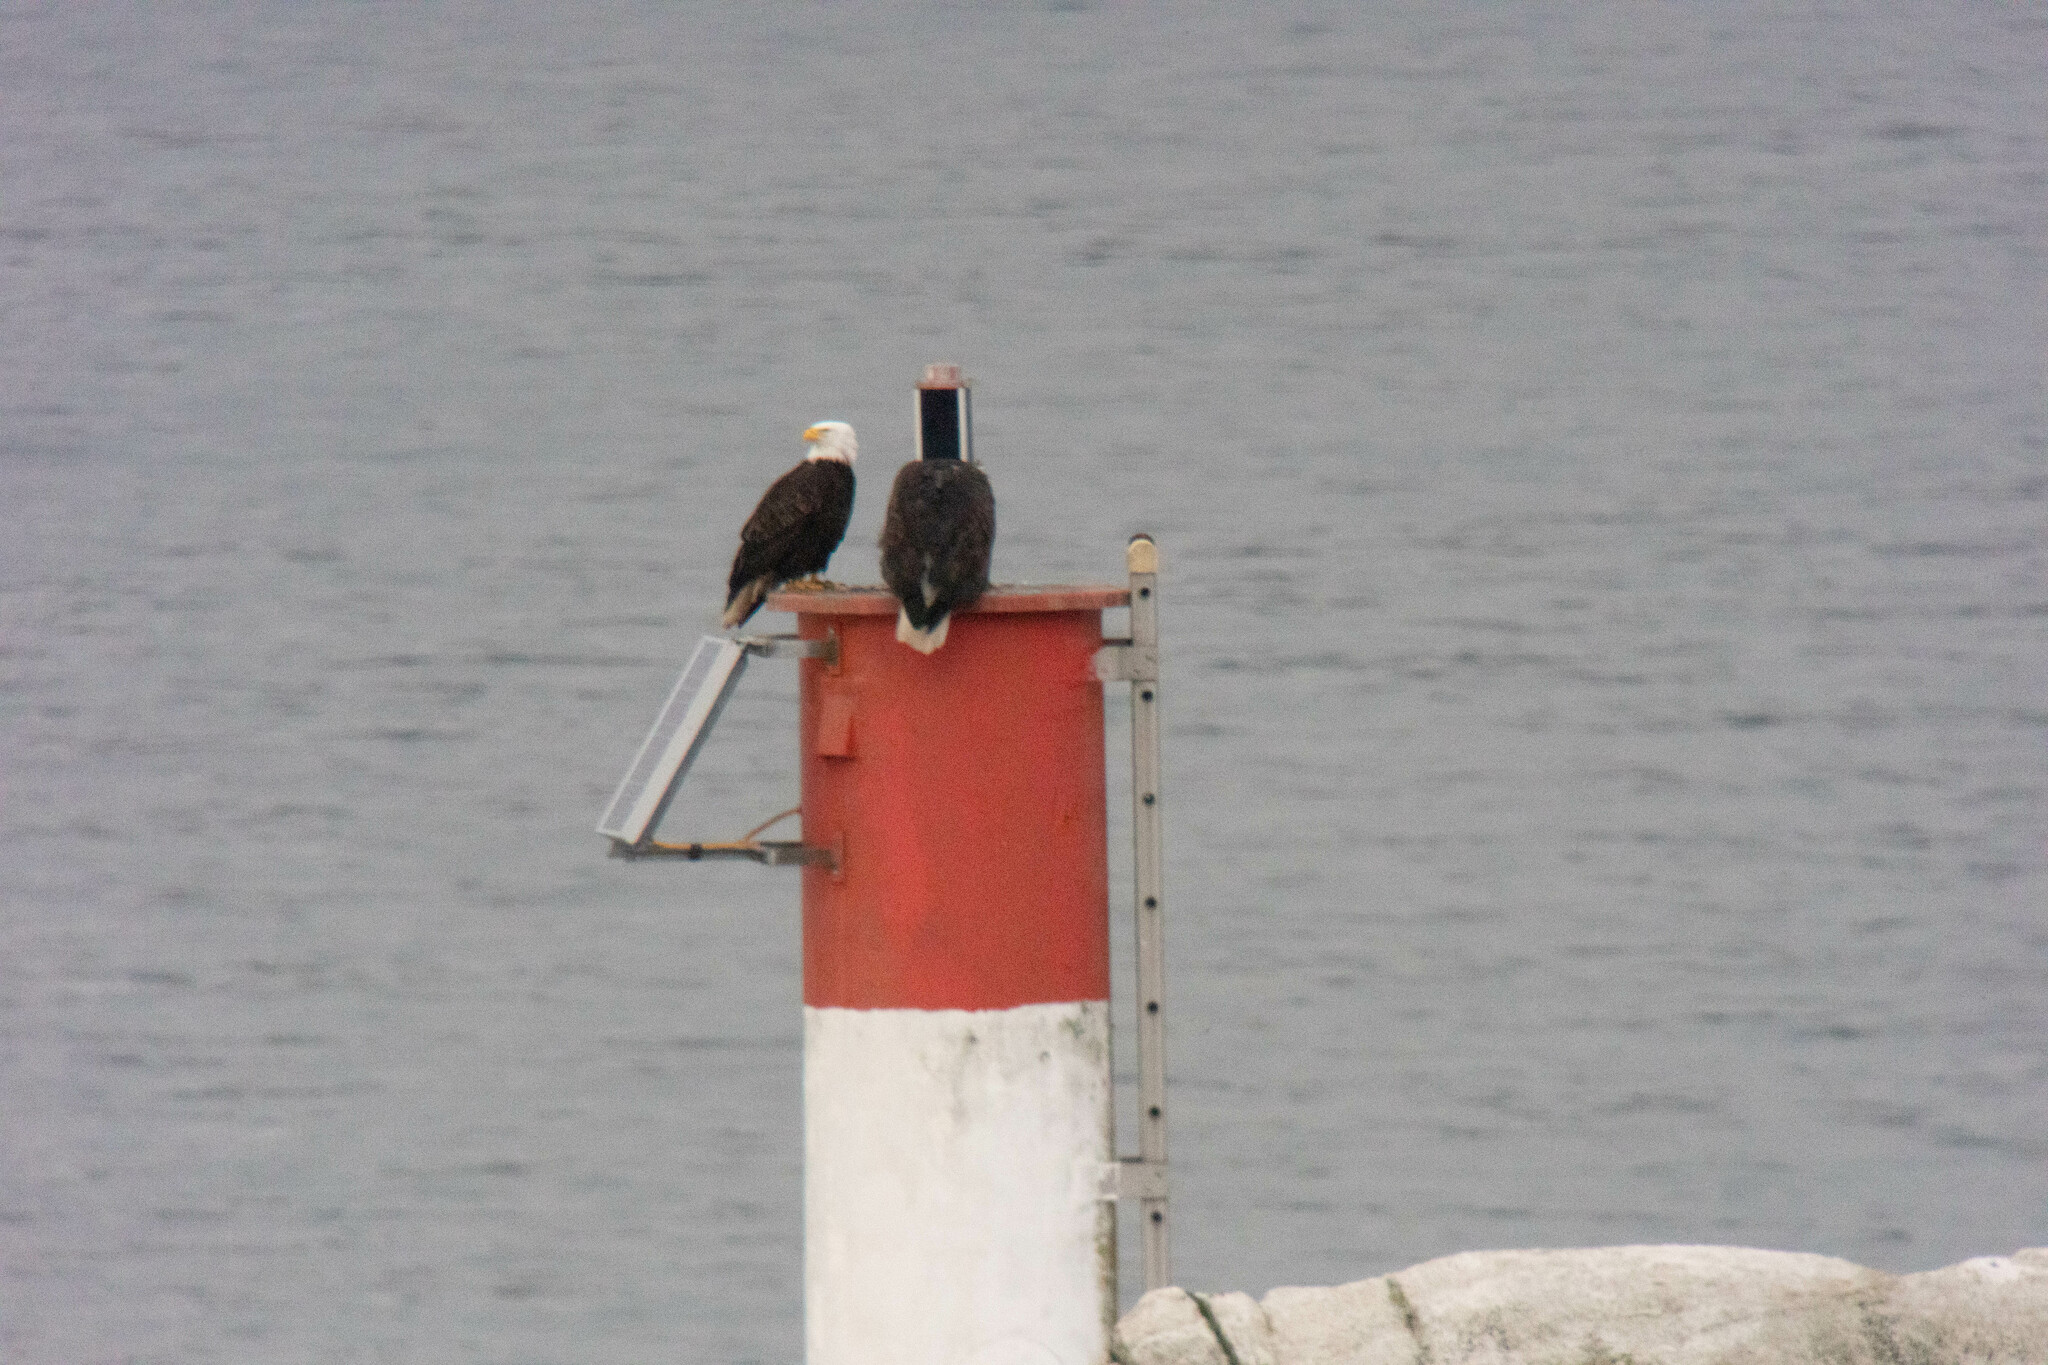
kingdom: Animalia
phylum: Chordata
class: Aves
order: Accipitriformes
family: Accipitridae
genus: Haliaeetus
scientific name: Haliaeetus leucocephalus
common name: Bald eagle
